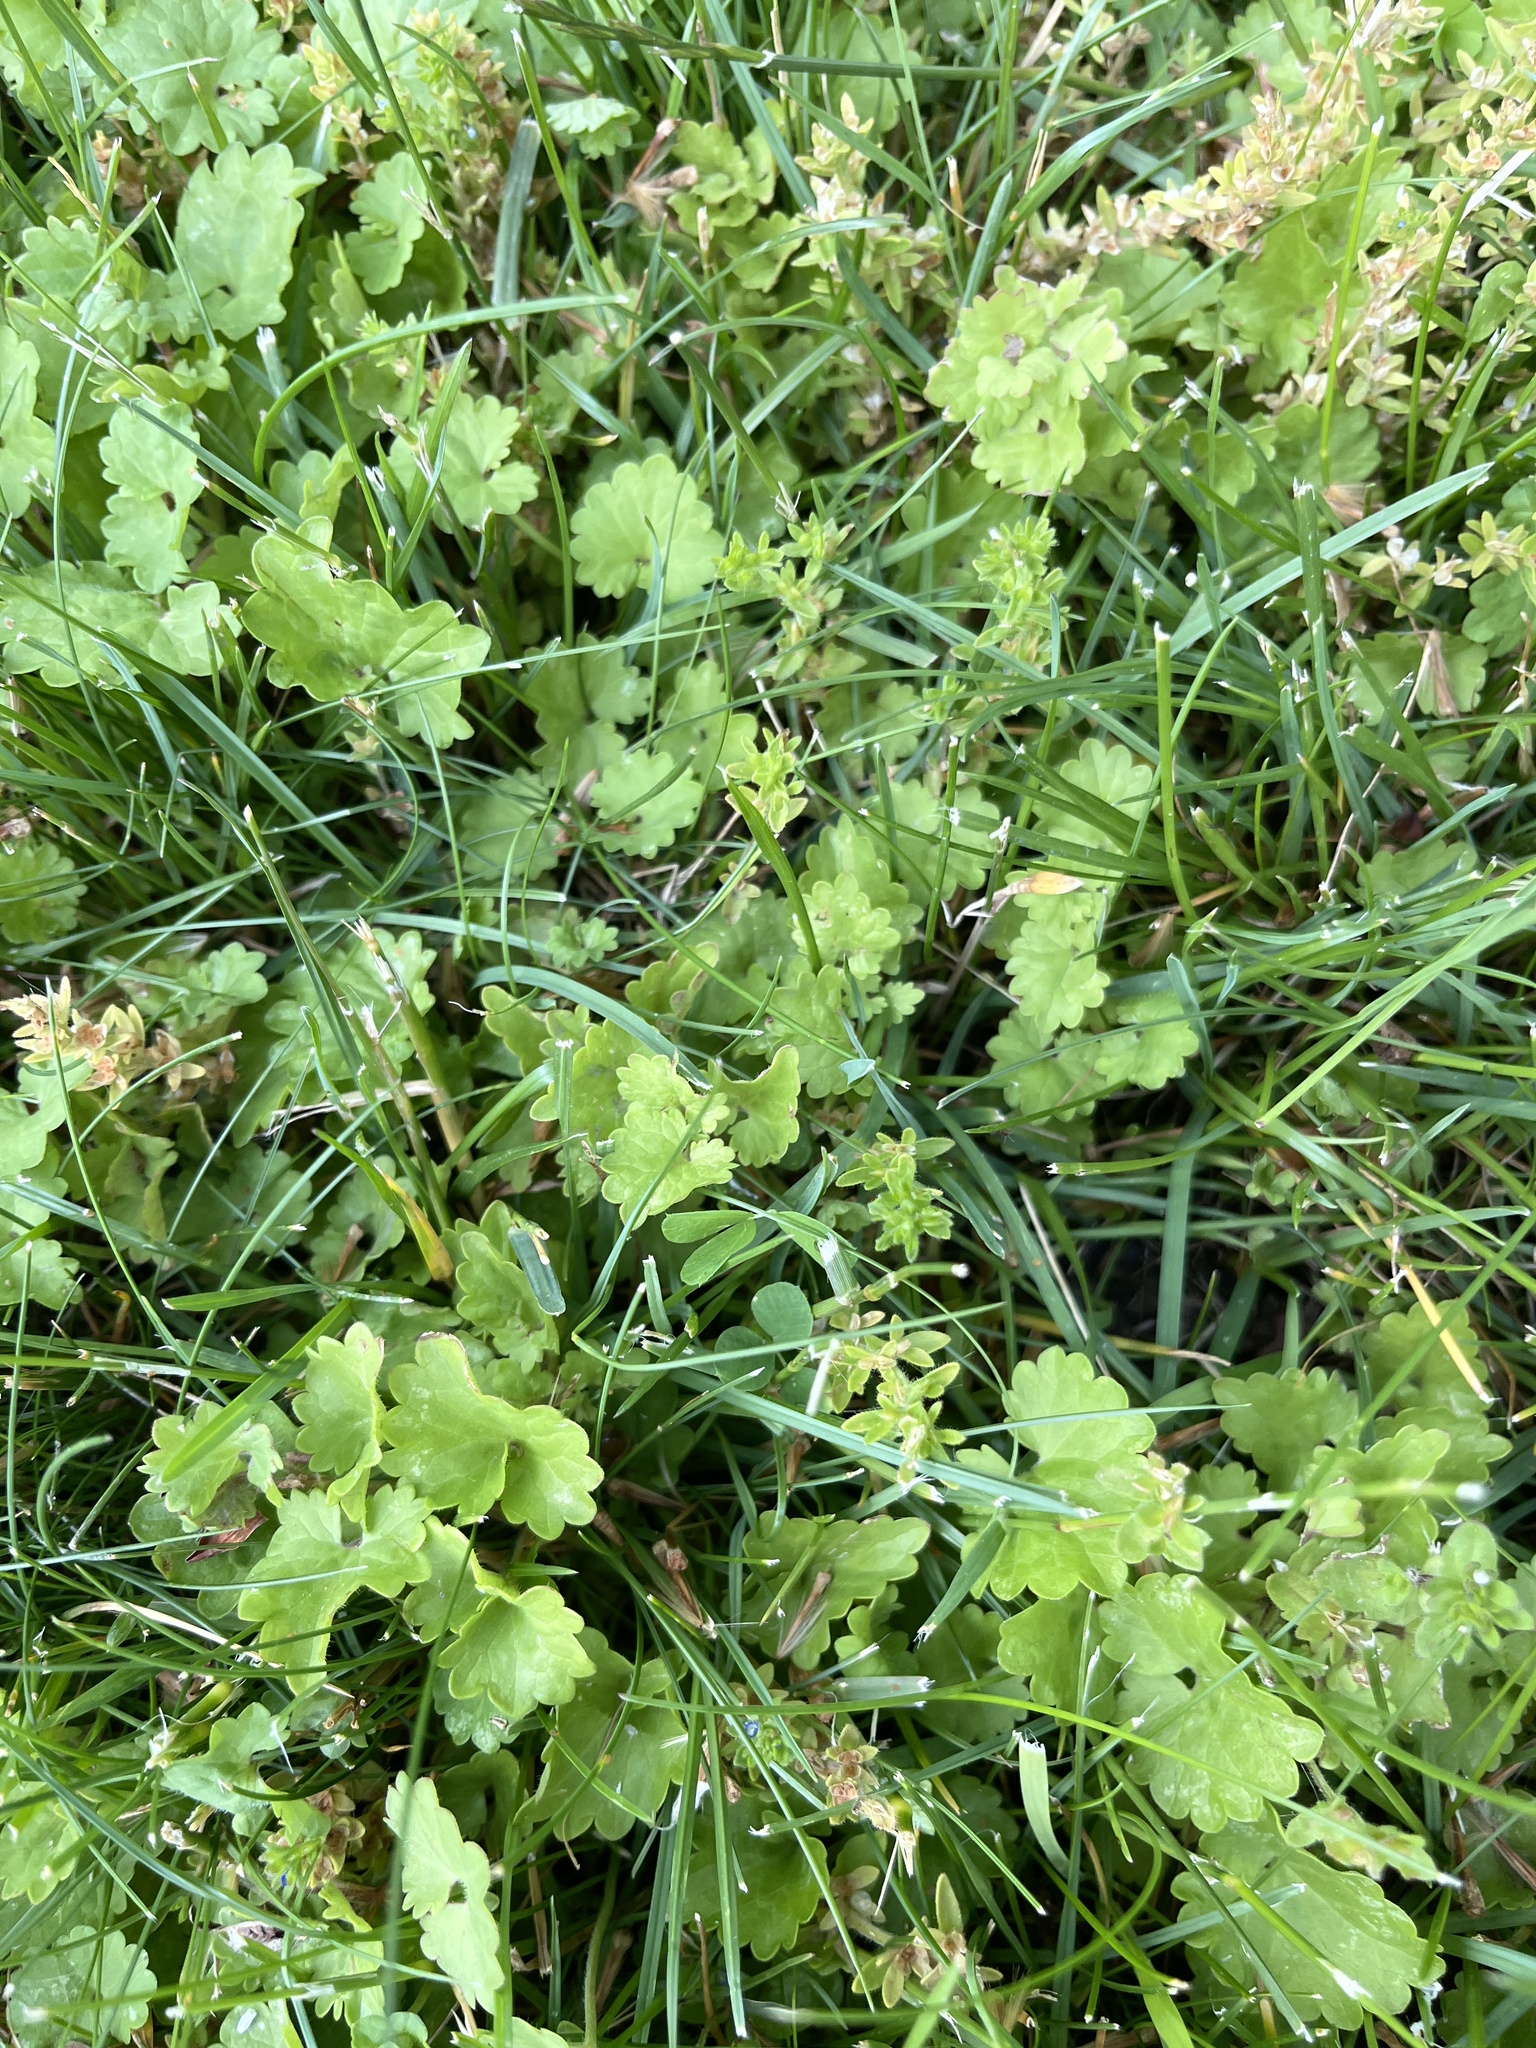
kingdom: Plantae
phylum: Tracheophyta
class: Magnoliopsida
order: Lamiales
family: Lamiaceae
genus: Glechoma
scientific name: Glechoma hederacea
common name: Ground ivy
